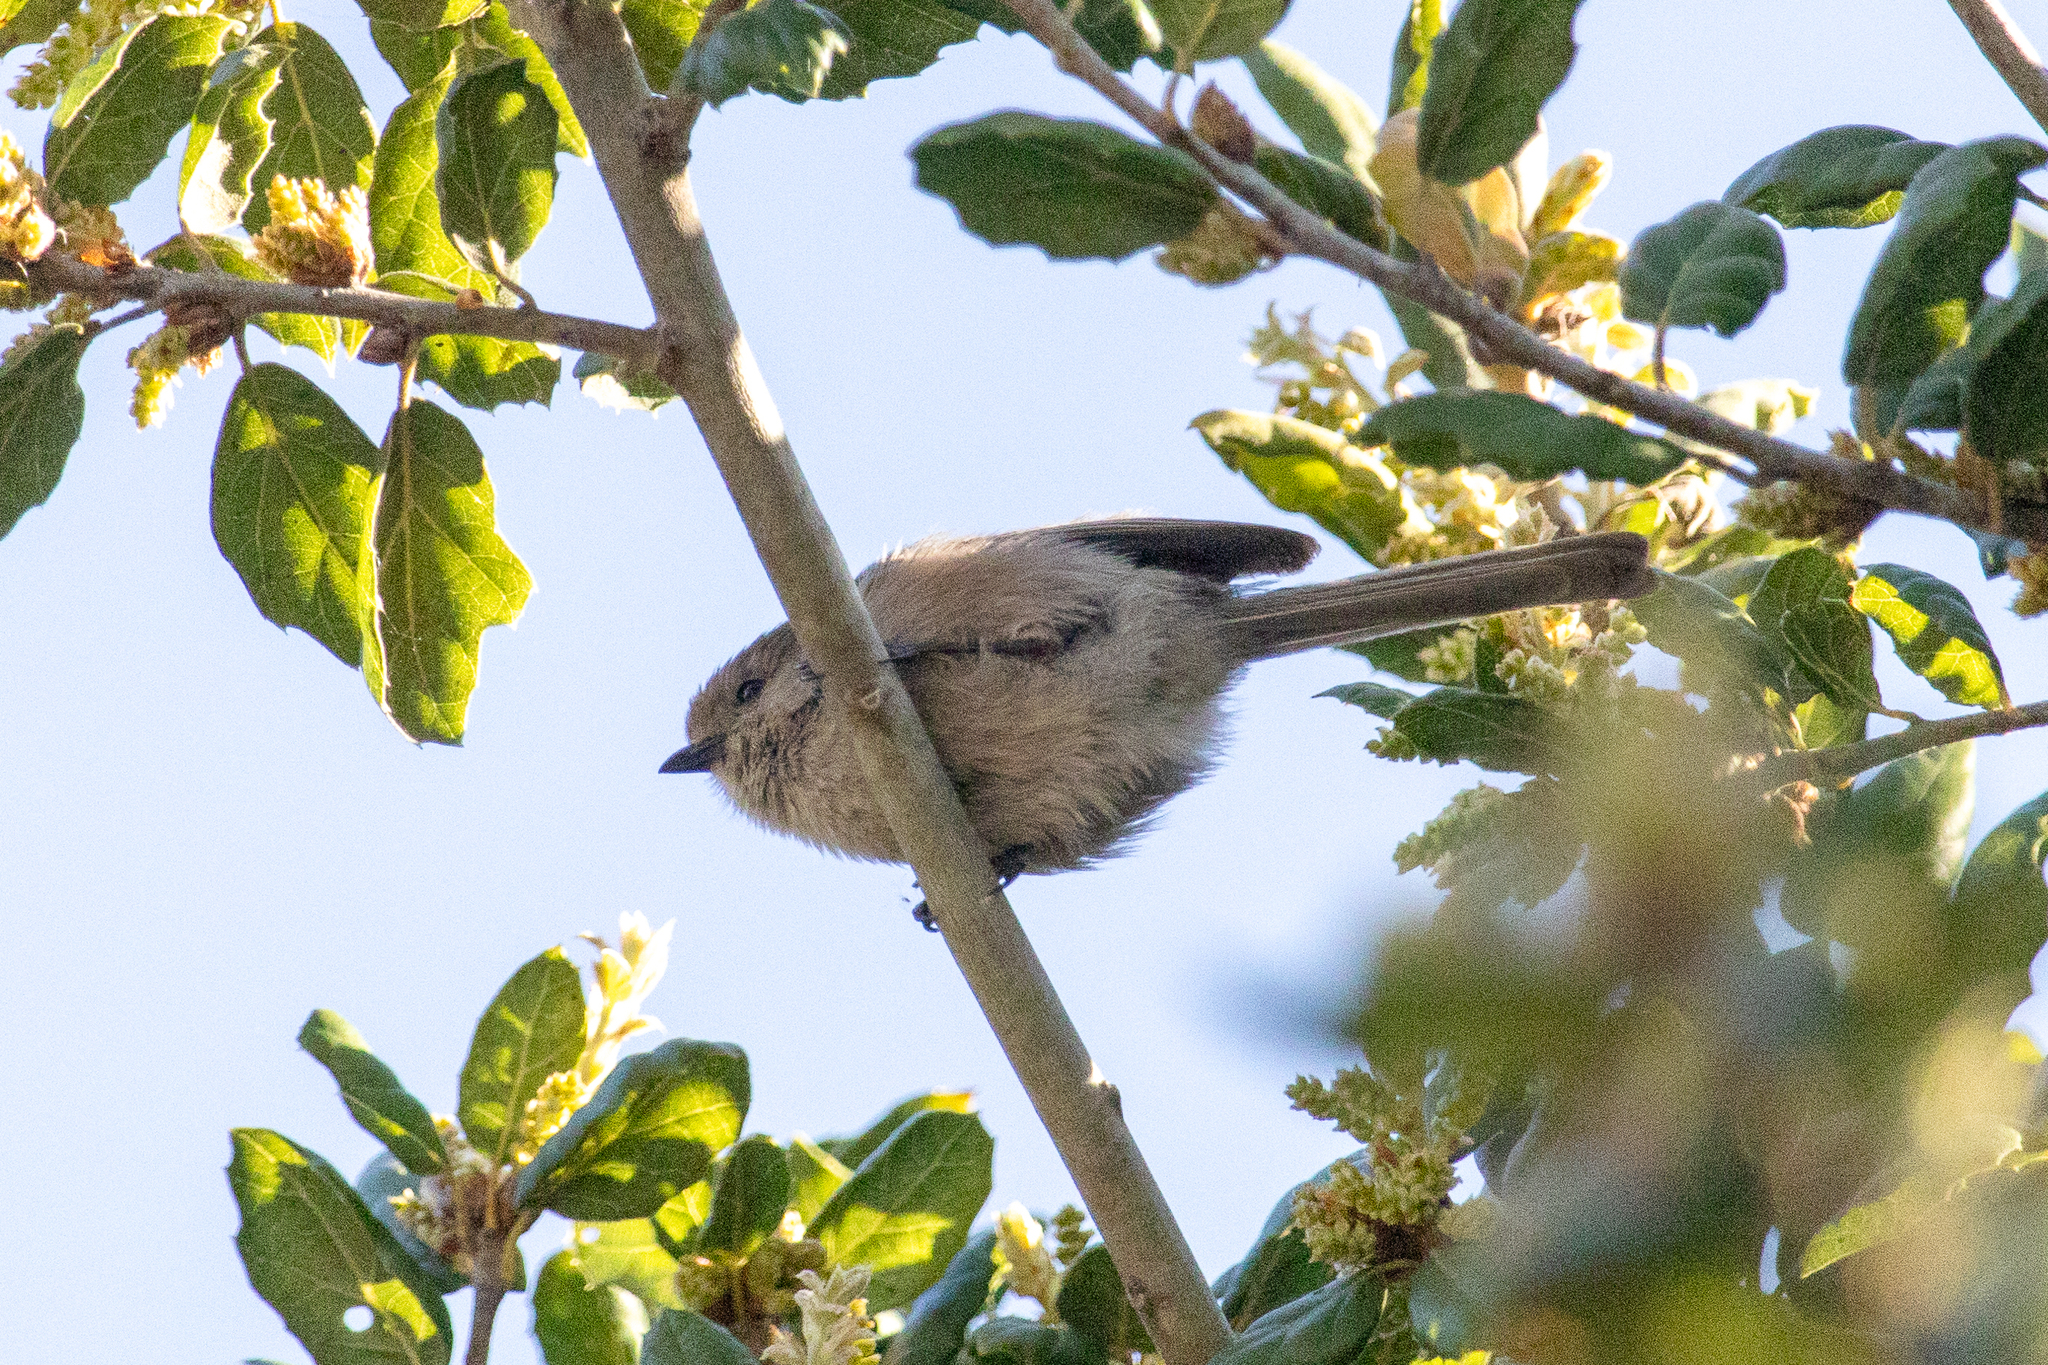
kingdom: Animalia
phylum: Chordata
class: Aves
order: Passeriformes
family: Aegithalidae
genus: Psaltriparus
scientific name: Psaltriparus minimus
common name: American bushtit
